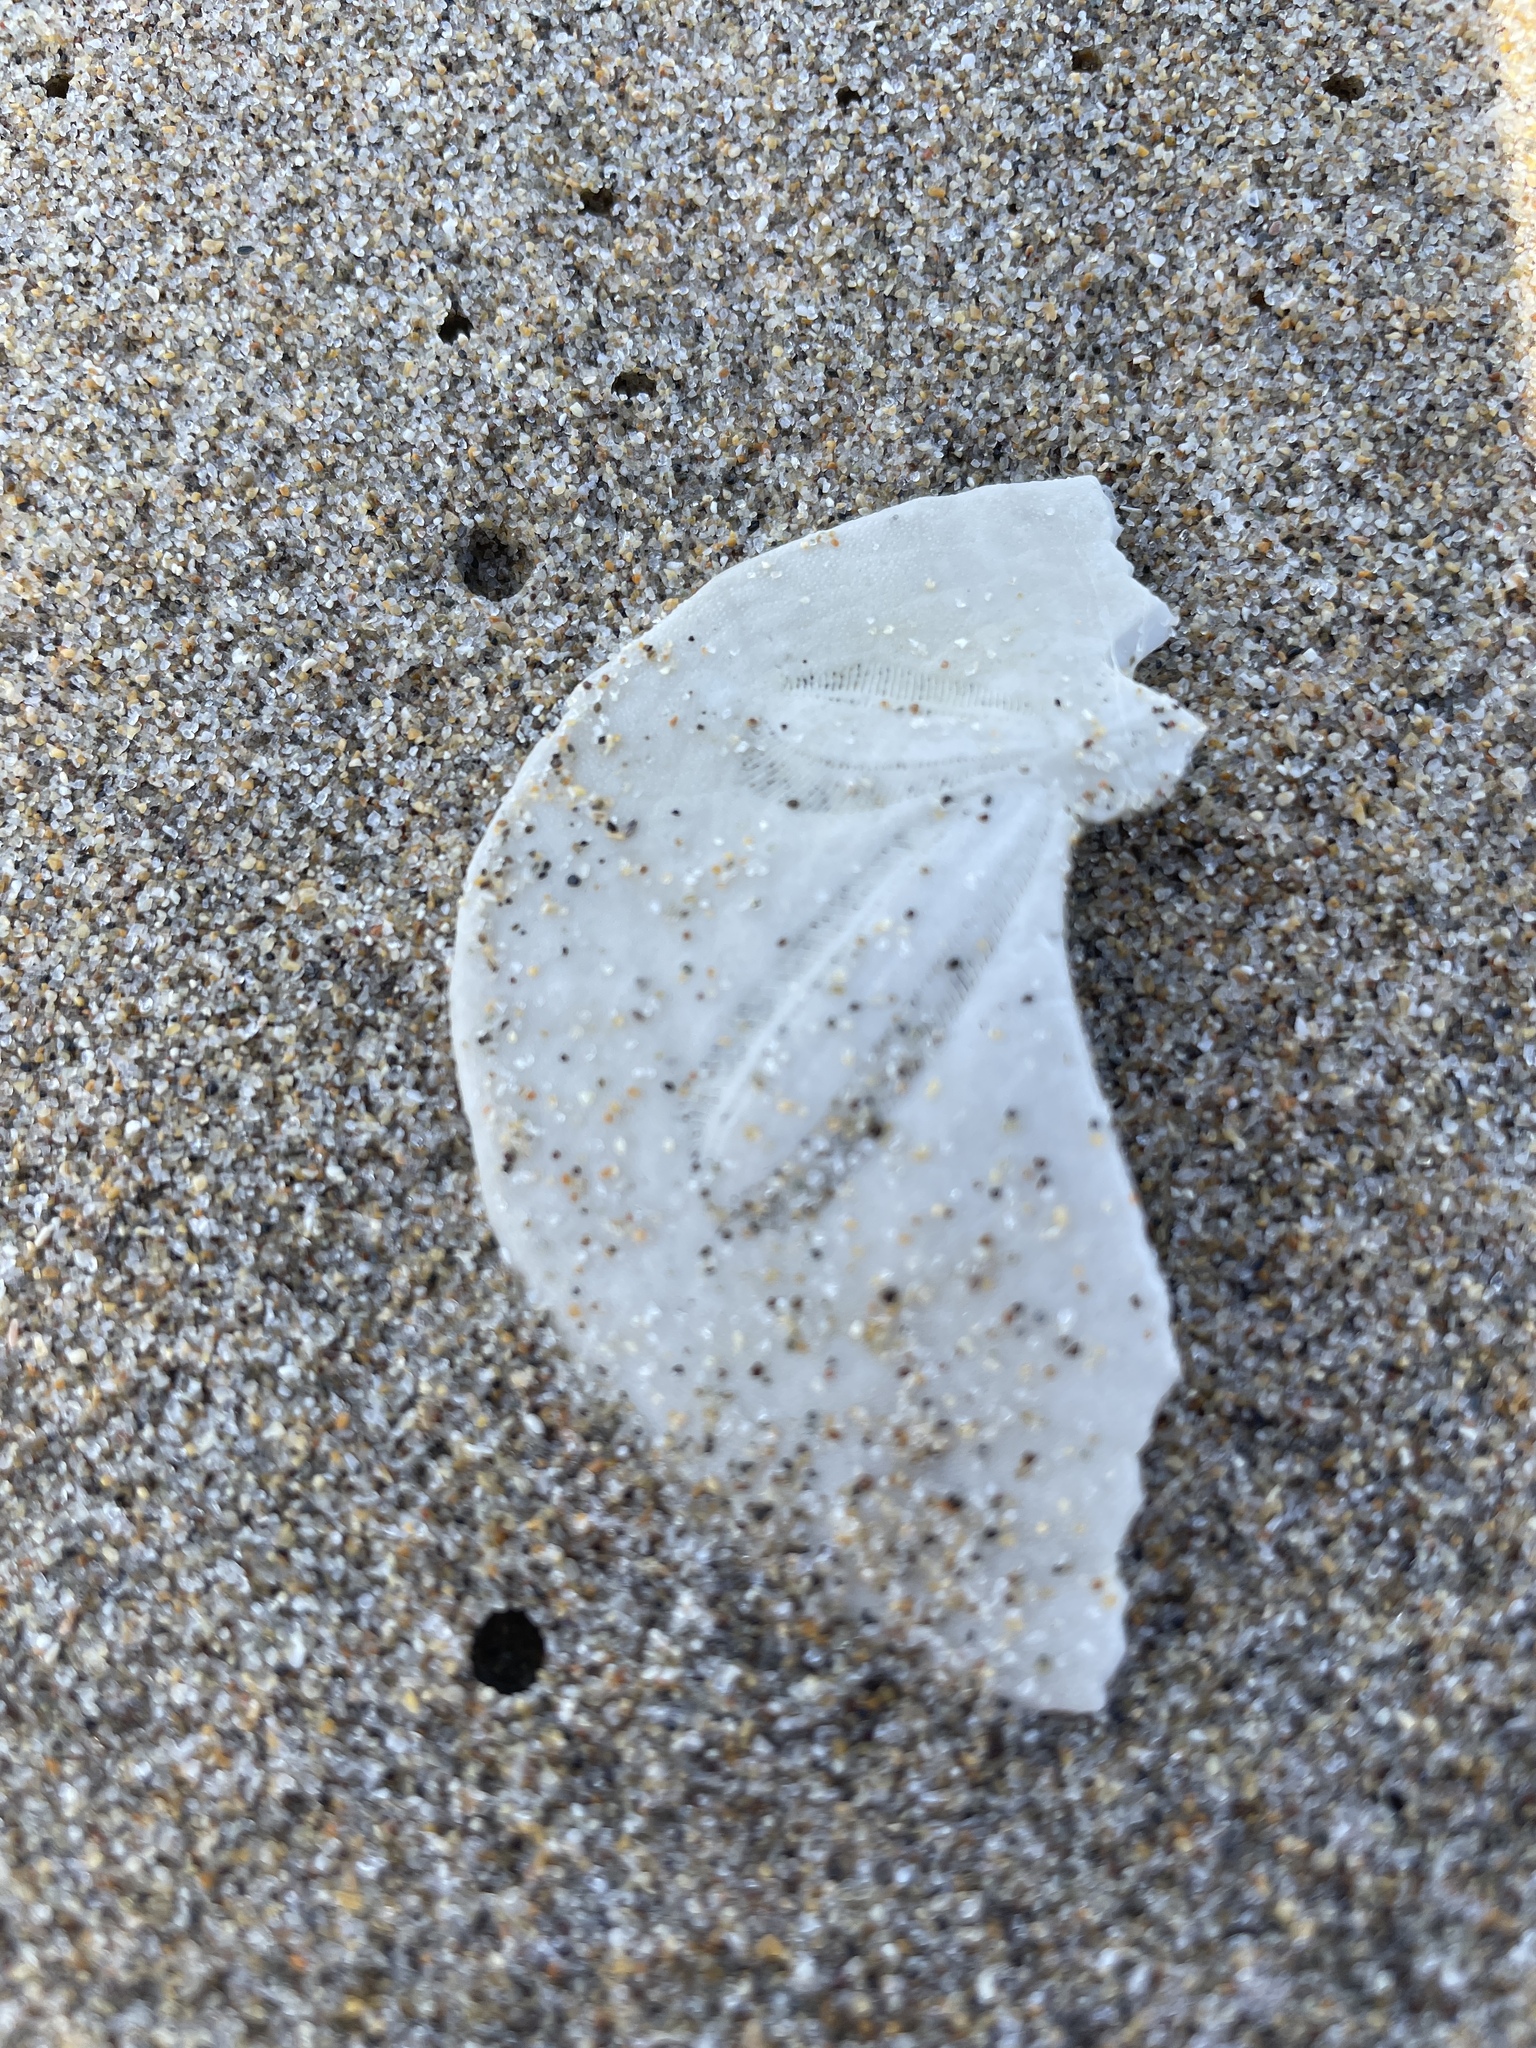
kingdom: Animalia
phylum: Echinodermata
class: Echinoidea
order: Echinolampadacea
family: Dendrasteridae
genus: Dendraster
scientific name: Dendraster excentricus
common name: Eccentric sand dollar sea urchin
